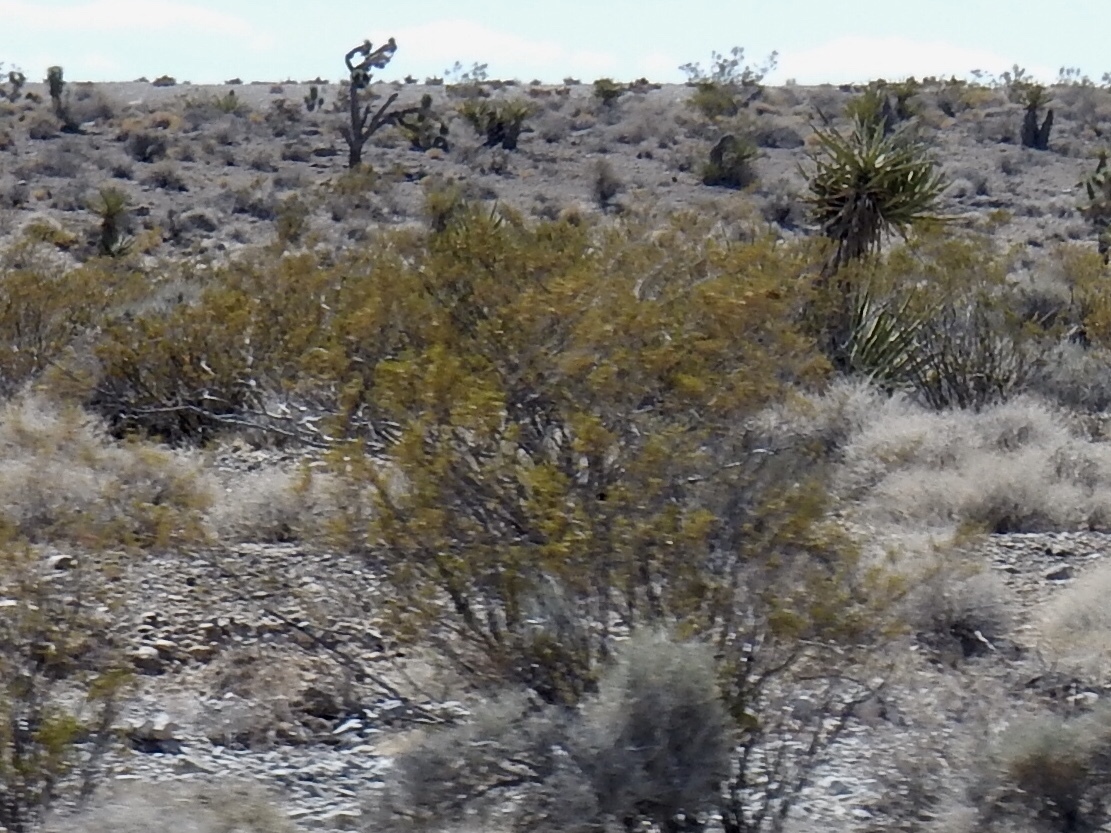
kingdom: Plantae
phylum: Tracheophyta
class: Magnoliopsida
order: Zygophyllales
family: Zygophyllaceae
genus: Larrea
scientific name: Larrea tridentata
